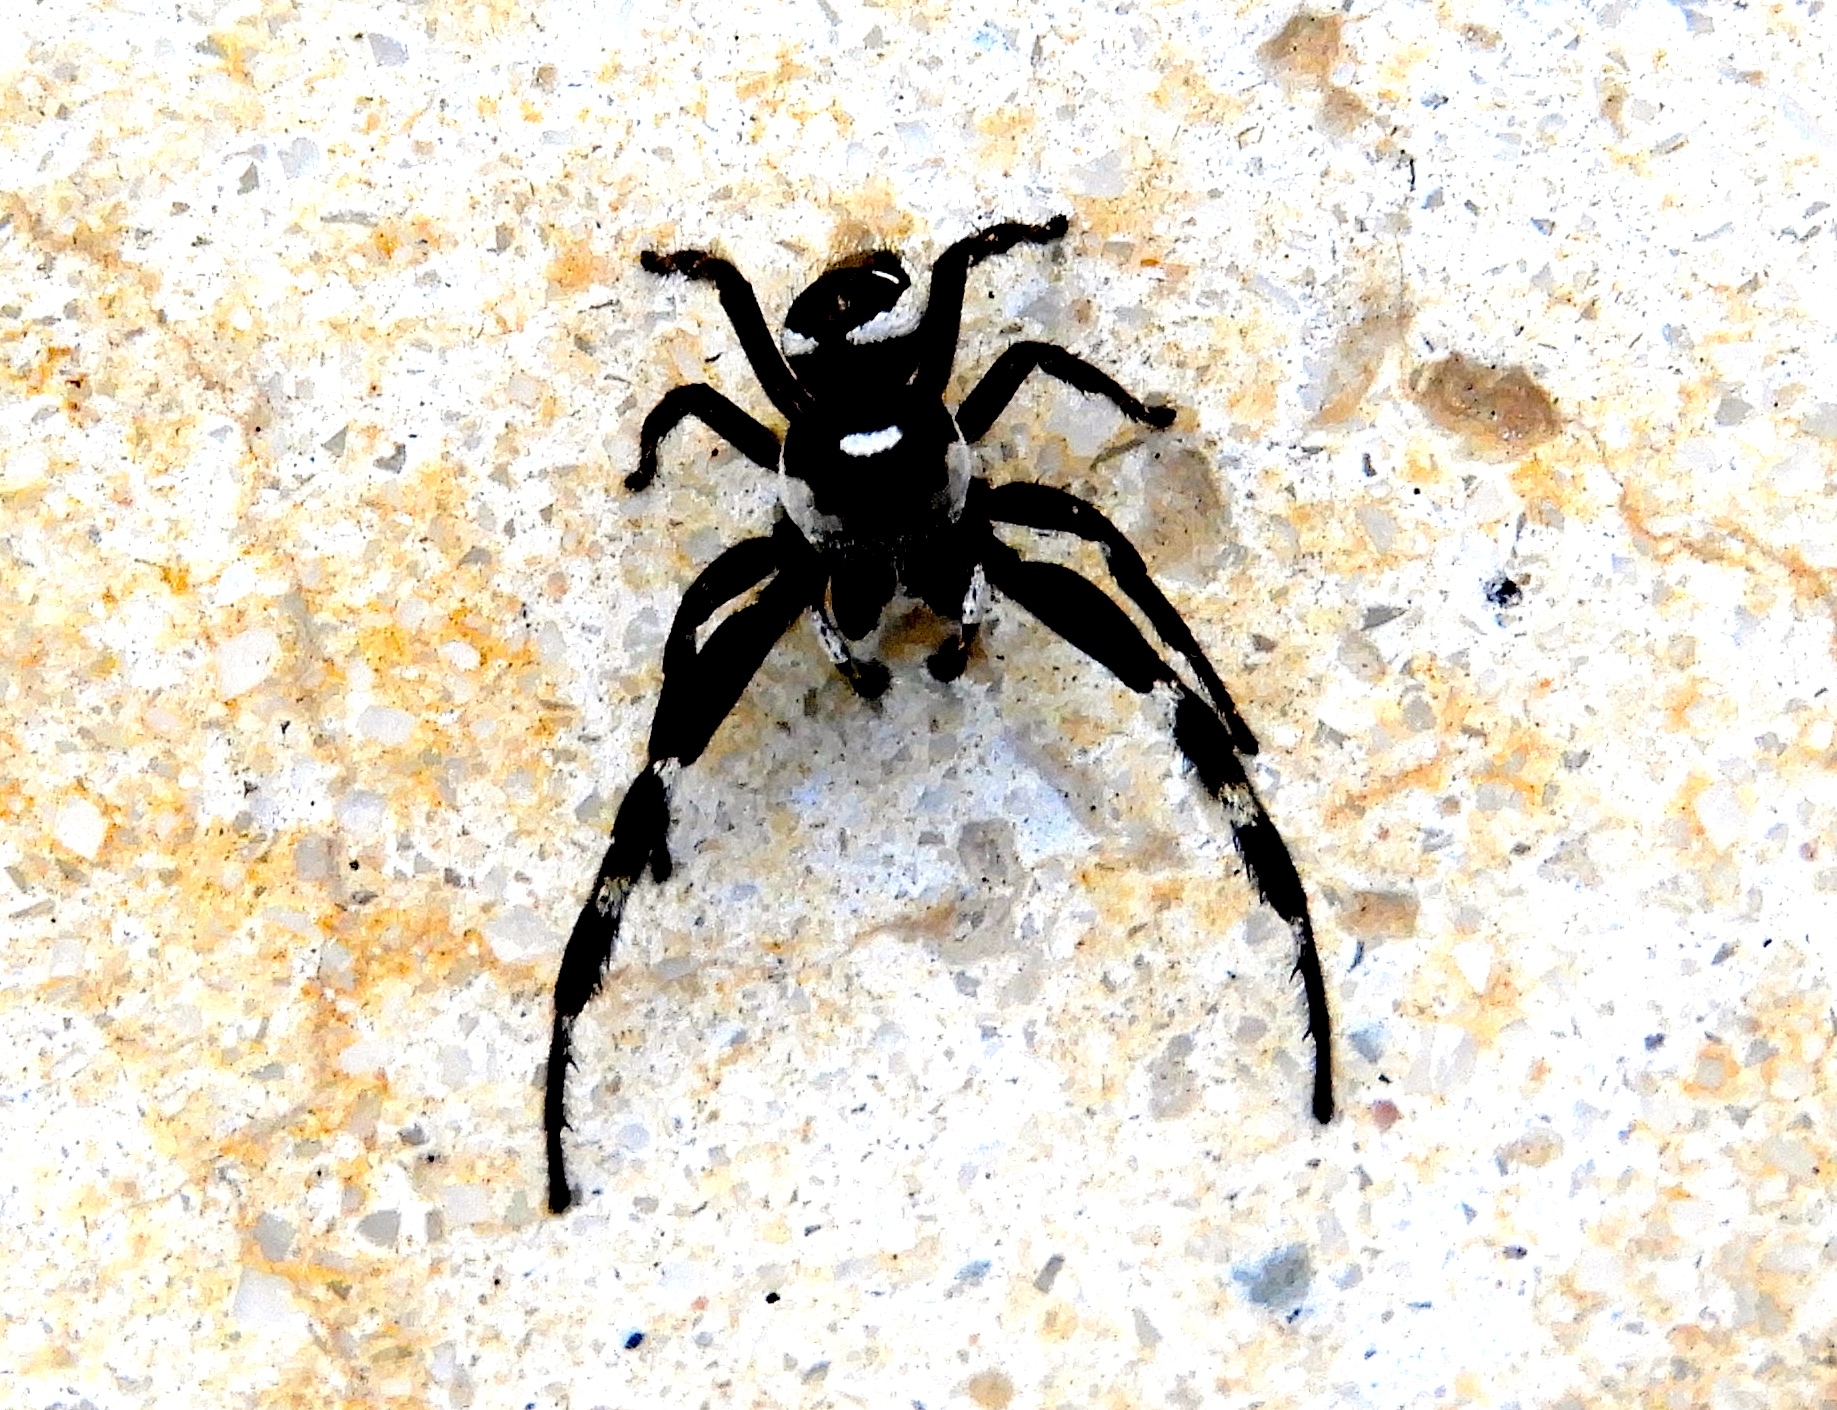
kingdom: Animalia
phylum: Arthropoda
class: Arachnida
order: Araneae
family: Salticidae
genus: Dendryphantes
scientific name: Dendryphantes zygoballoides
